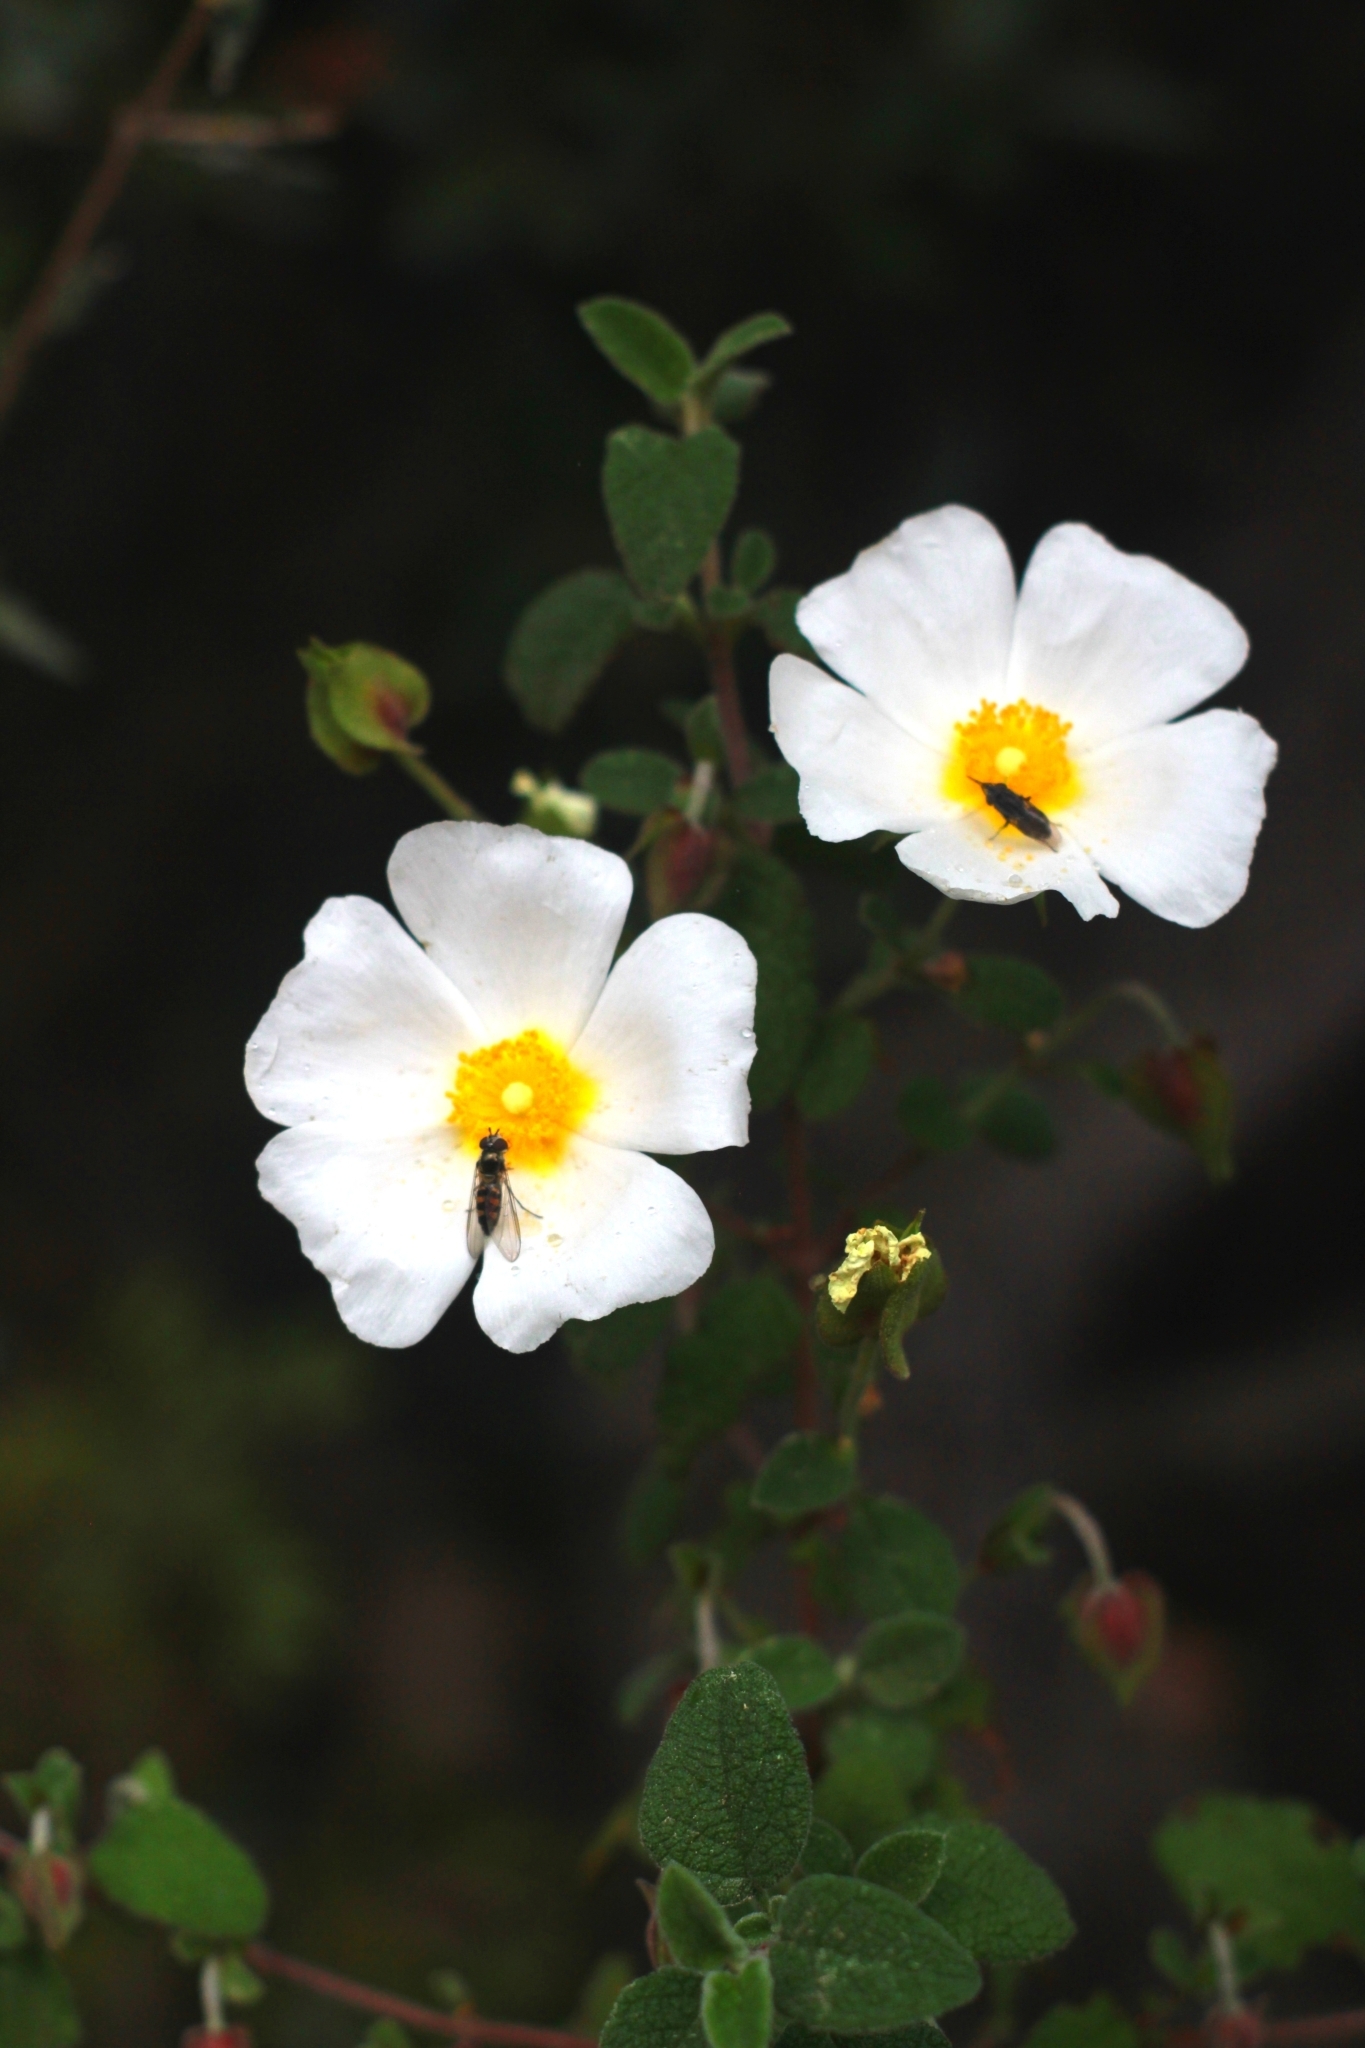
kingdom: Plantae
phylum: Tracheophyta
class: Magnoliopsida
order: Malvales
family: Cistaceae
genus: Cistus
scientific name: Cistus salviifolius
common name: Salvia cistus
